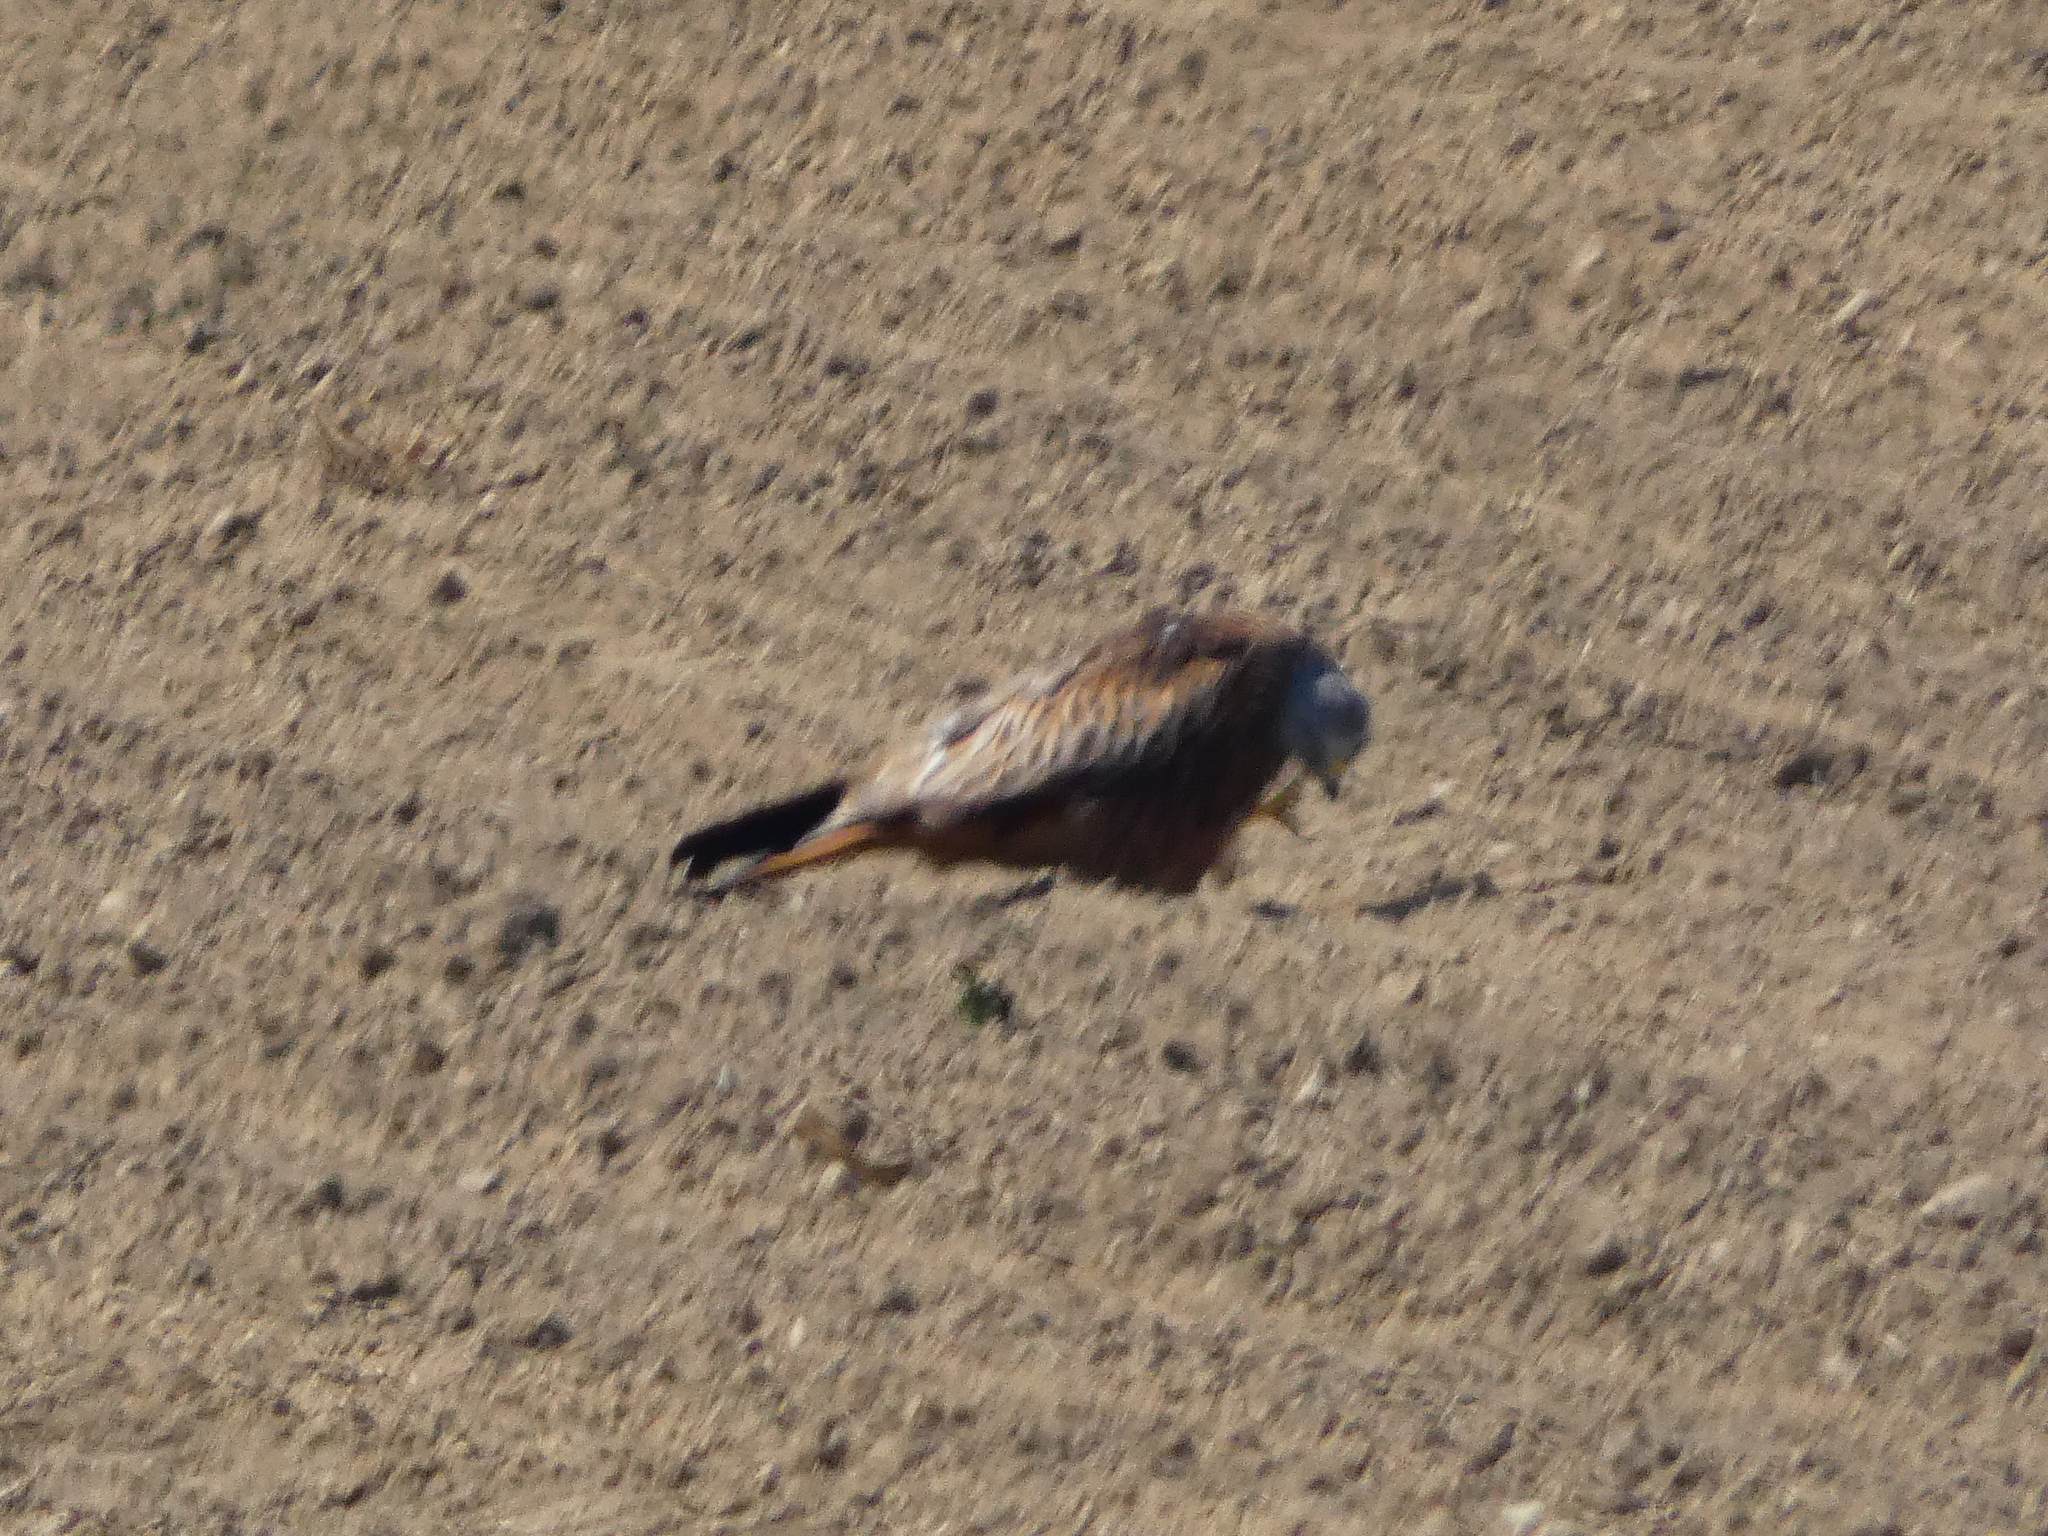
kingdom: Animalia
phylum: Chordata
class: Aves
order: Accipitriformes
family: Accipitridae
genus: Milvus
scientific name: Milvus milvus
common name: Red kite
